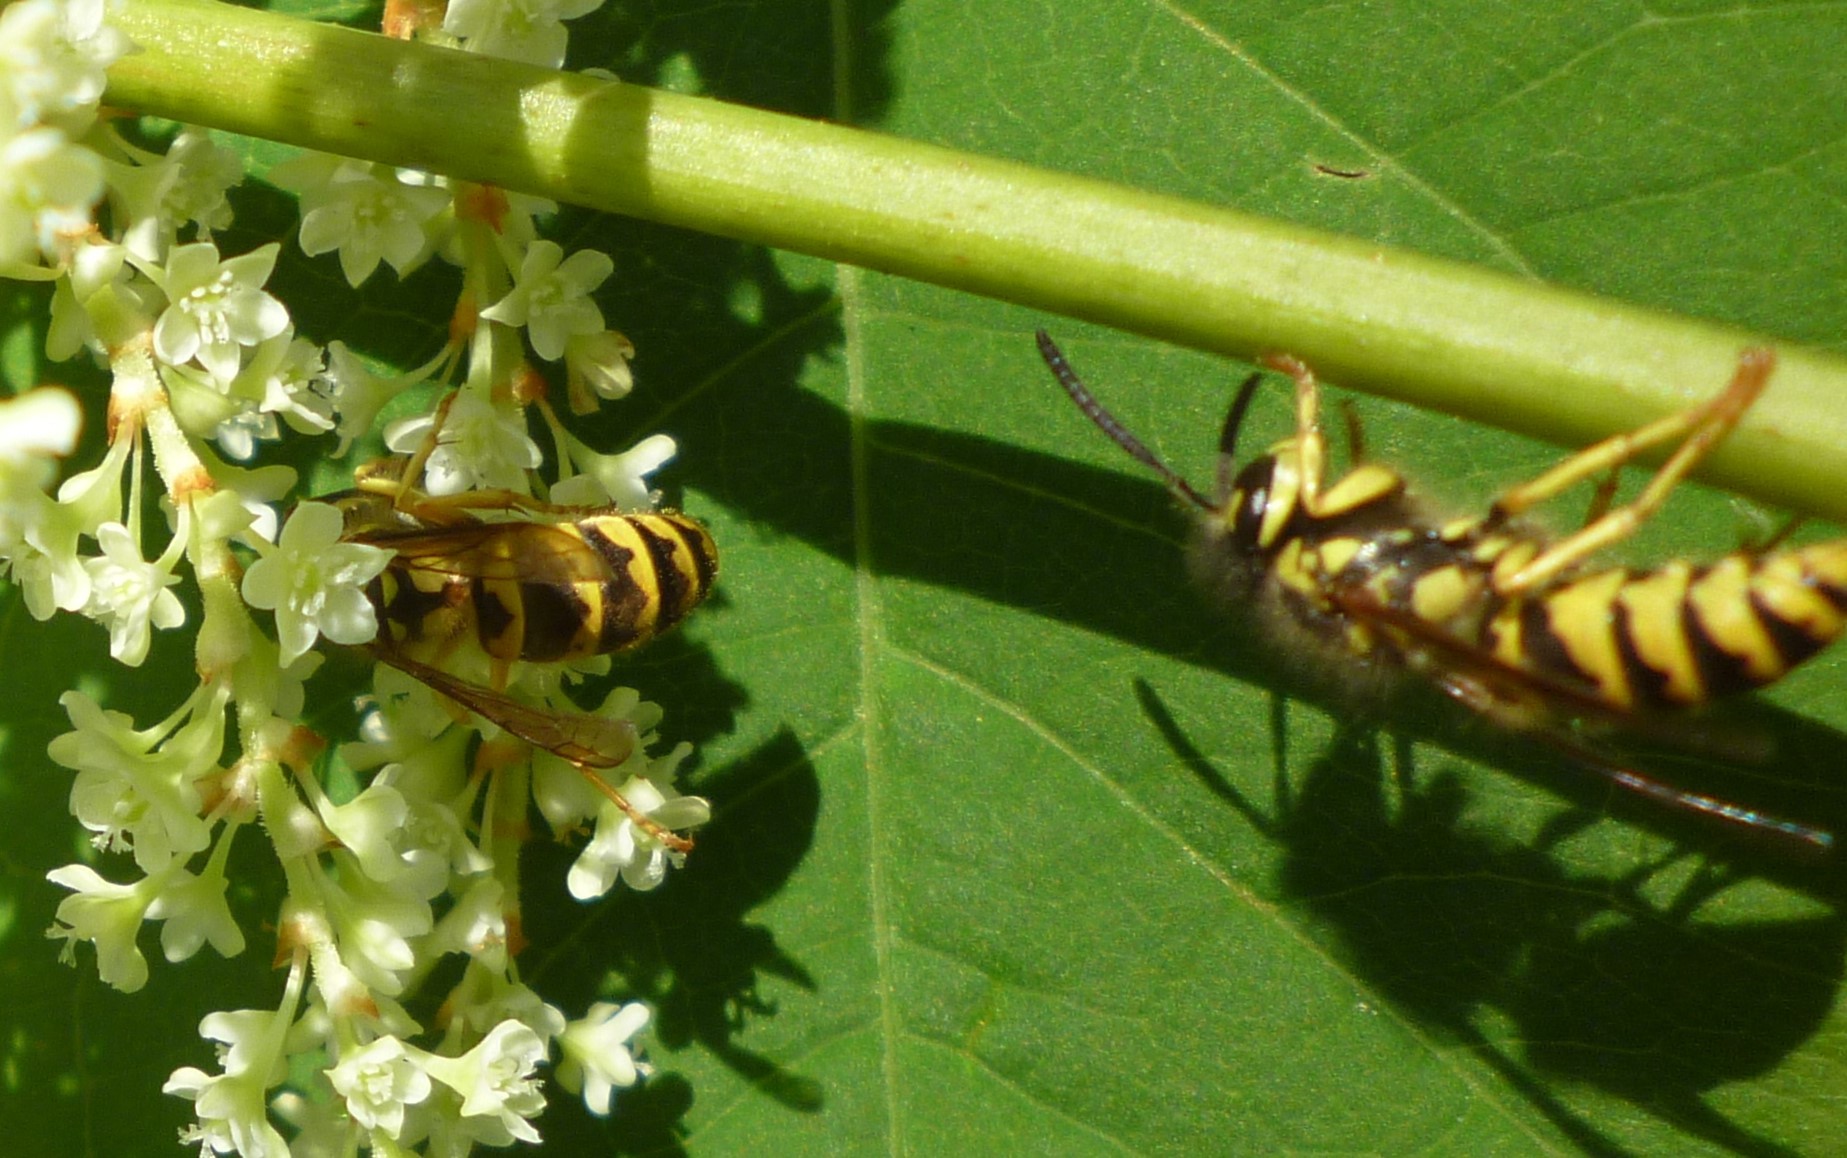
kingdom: Animalia
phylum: Arthropoda
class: Insecta
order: Hymenoptera
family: Vespidae
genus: Vespula
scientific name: Vespula flavopilosa
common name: Downy yellowjacket
